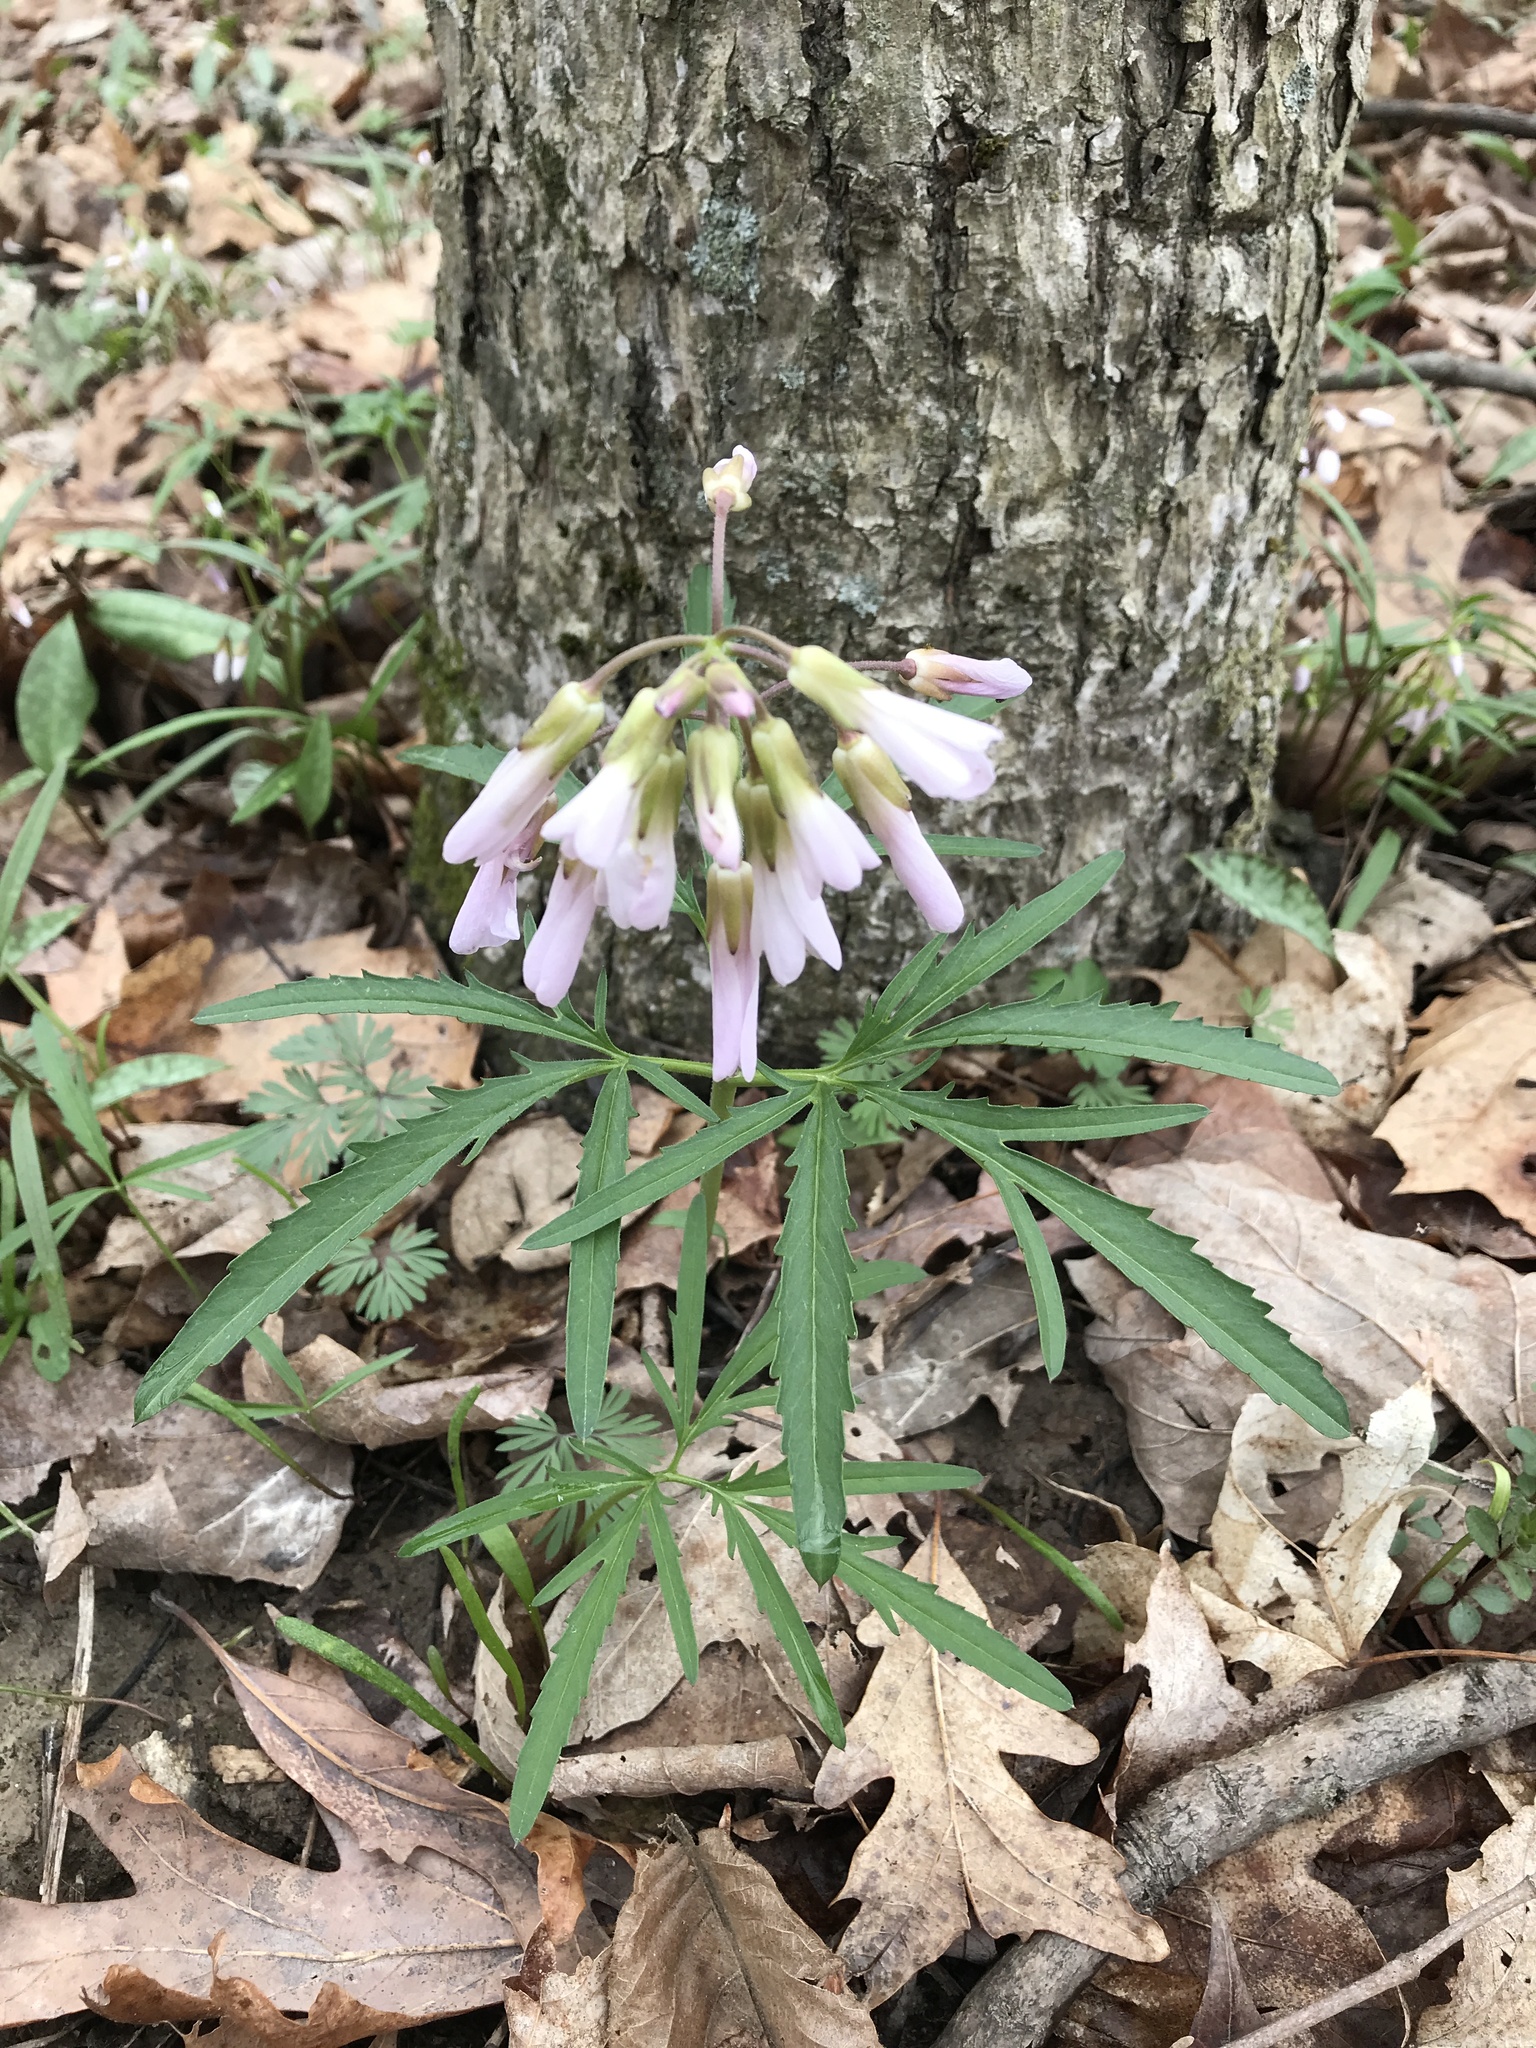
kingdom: Plantae
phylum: Tracheophyta
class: Magnoliopsida
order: Brassicales
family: Brassicaceae
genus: Cardamine
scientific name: Cardamine concatenata
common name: Cut-leaf toothcup
